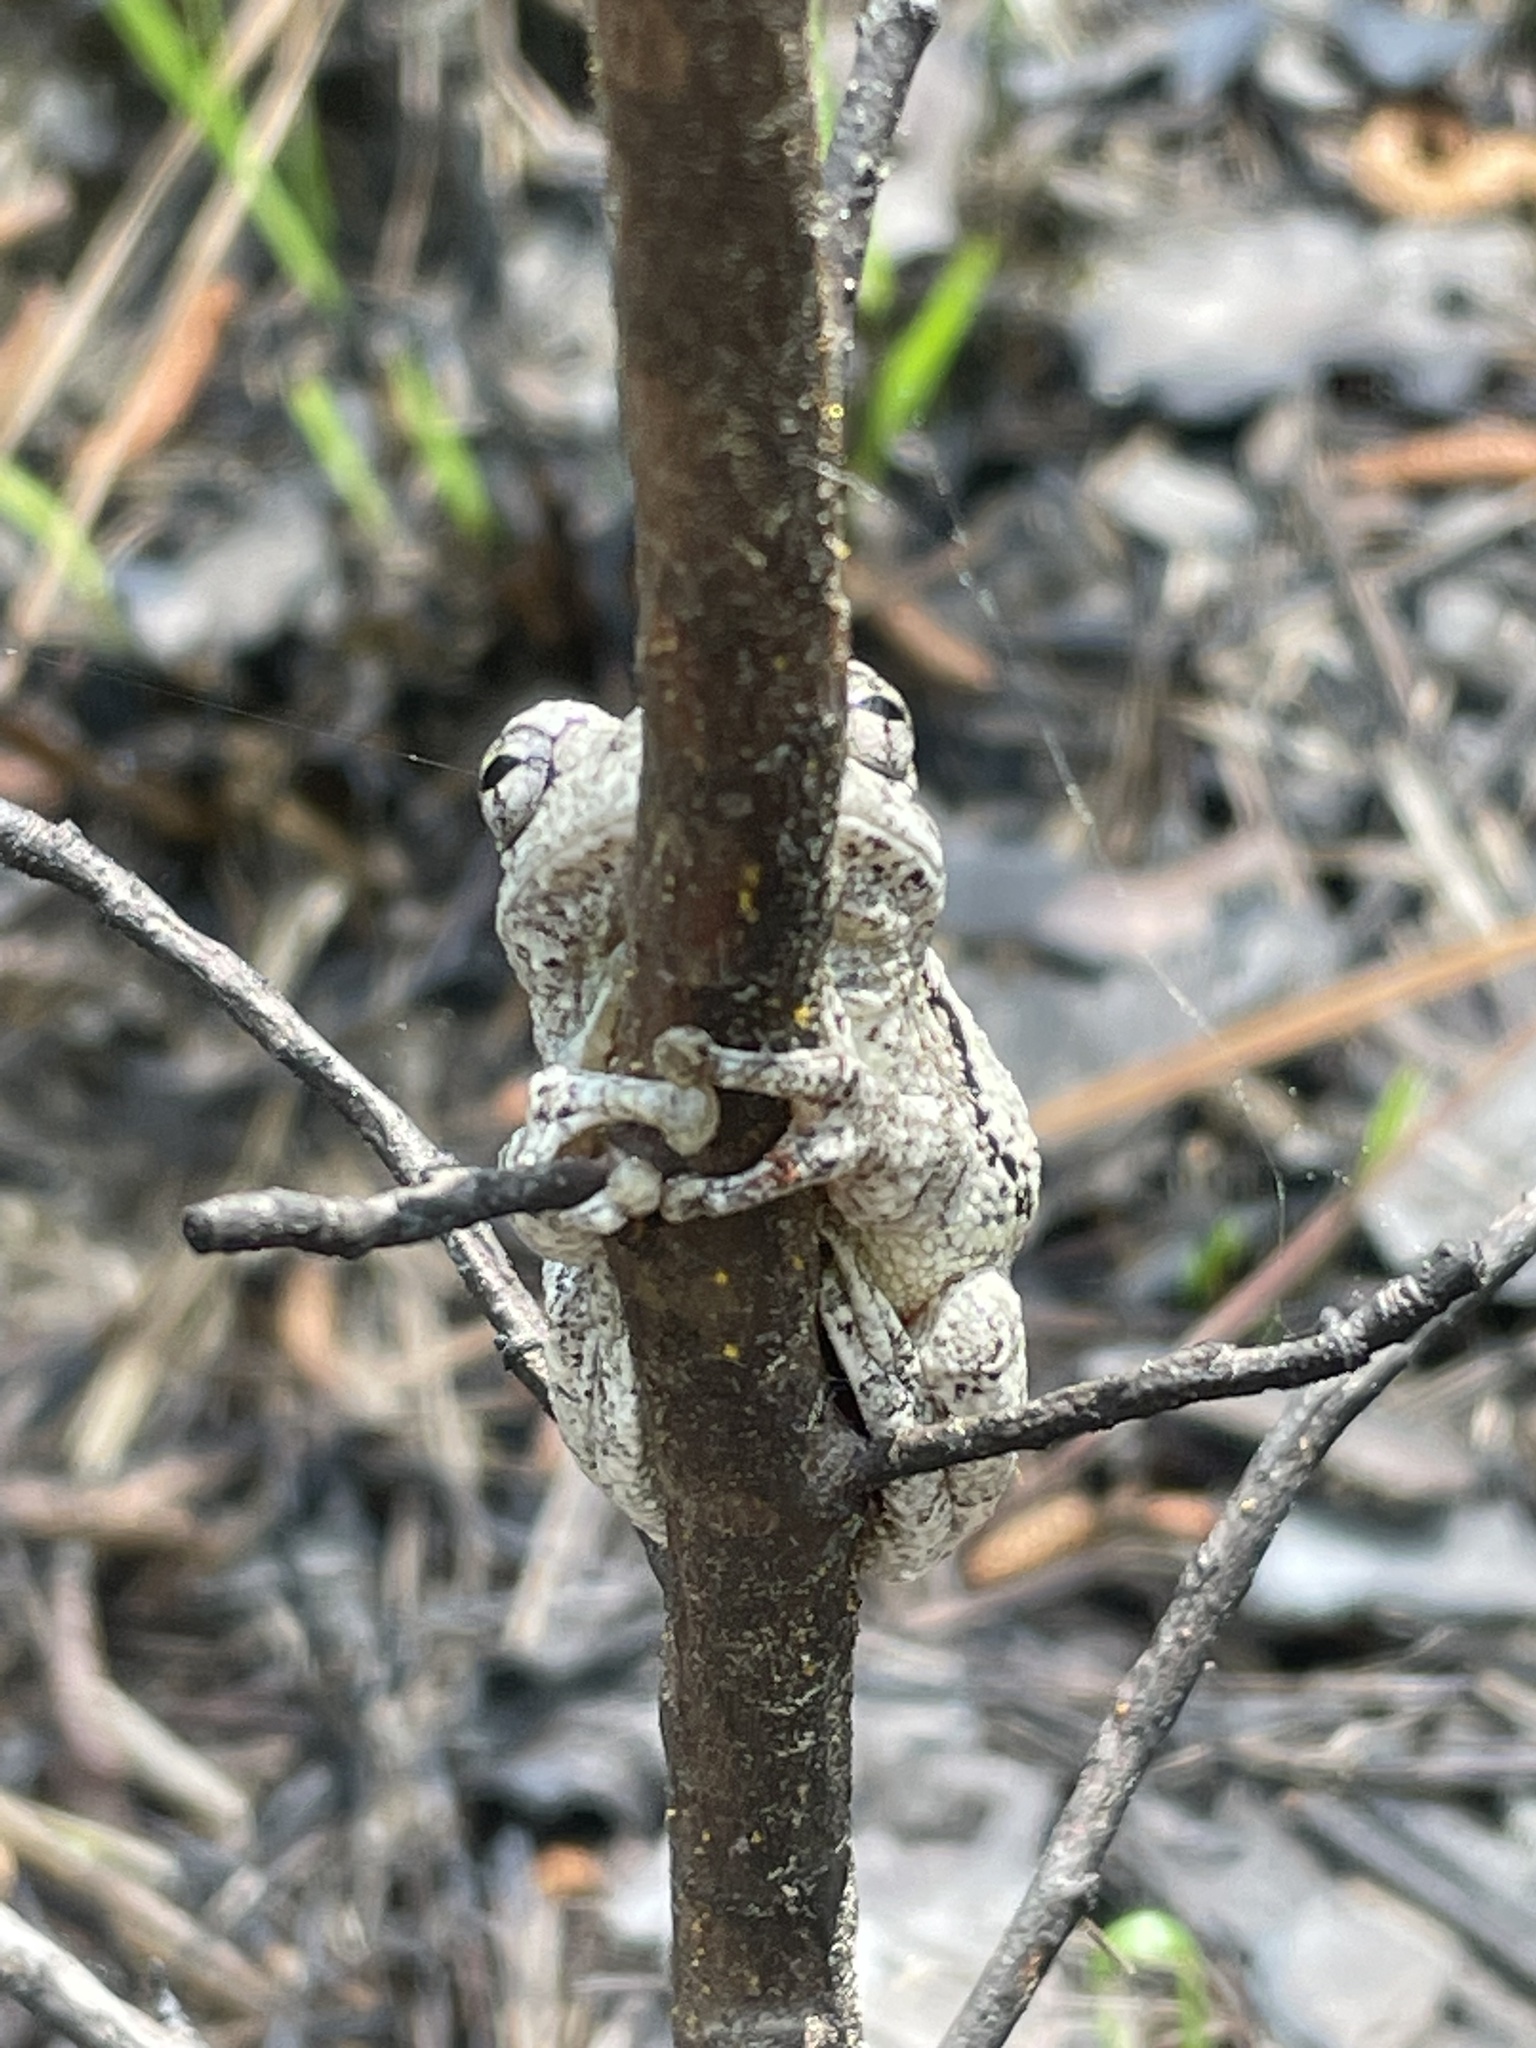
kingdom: Animalia
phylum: Chordata
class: Amphibia
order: Anura
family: Hylidae
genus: Dryophytes
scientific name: Dryophytes chrysoscelis
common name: Cope's gray treefrog
